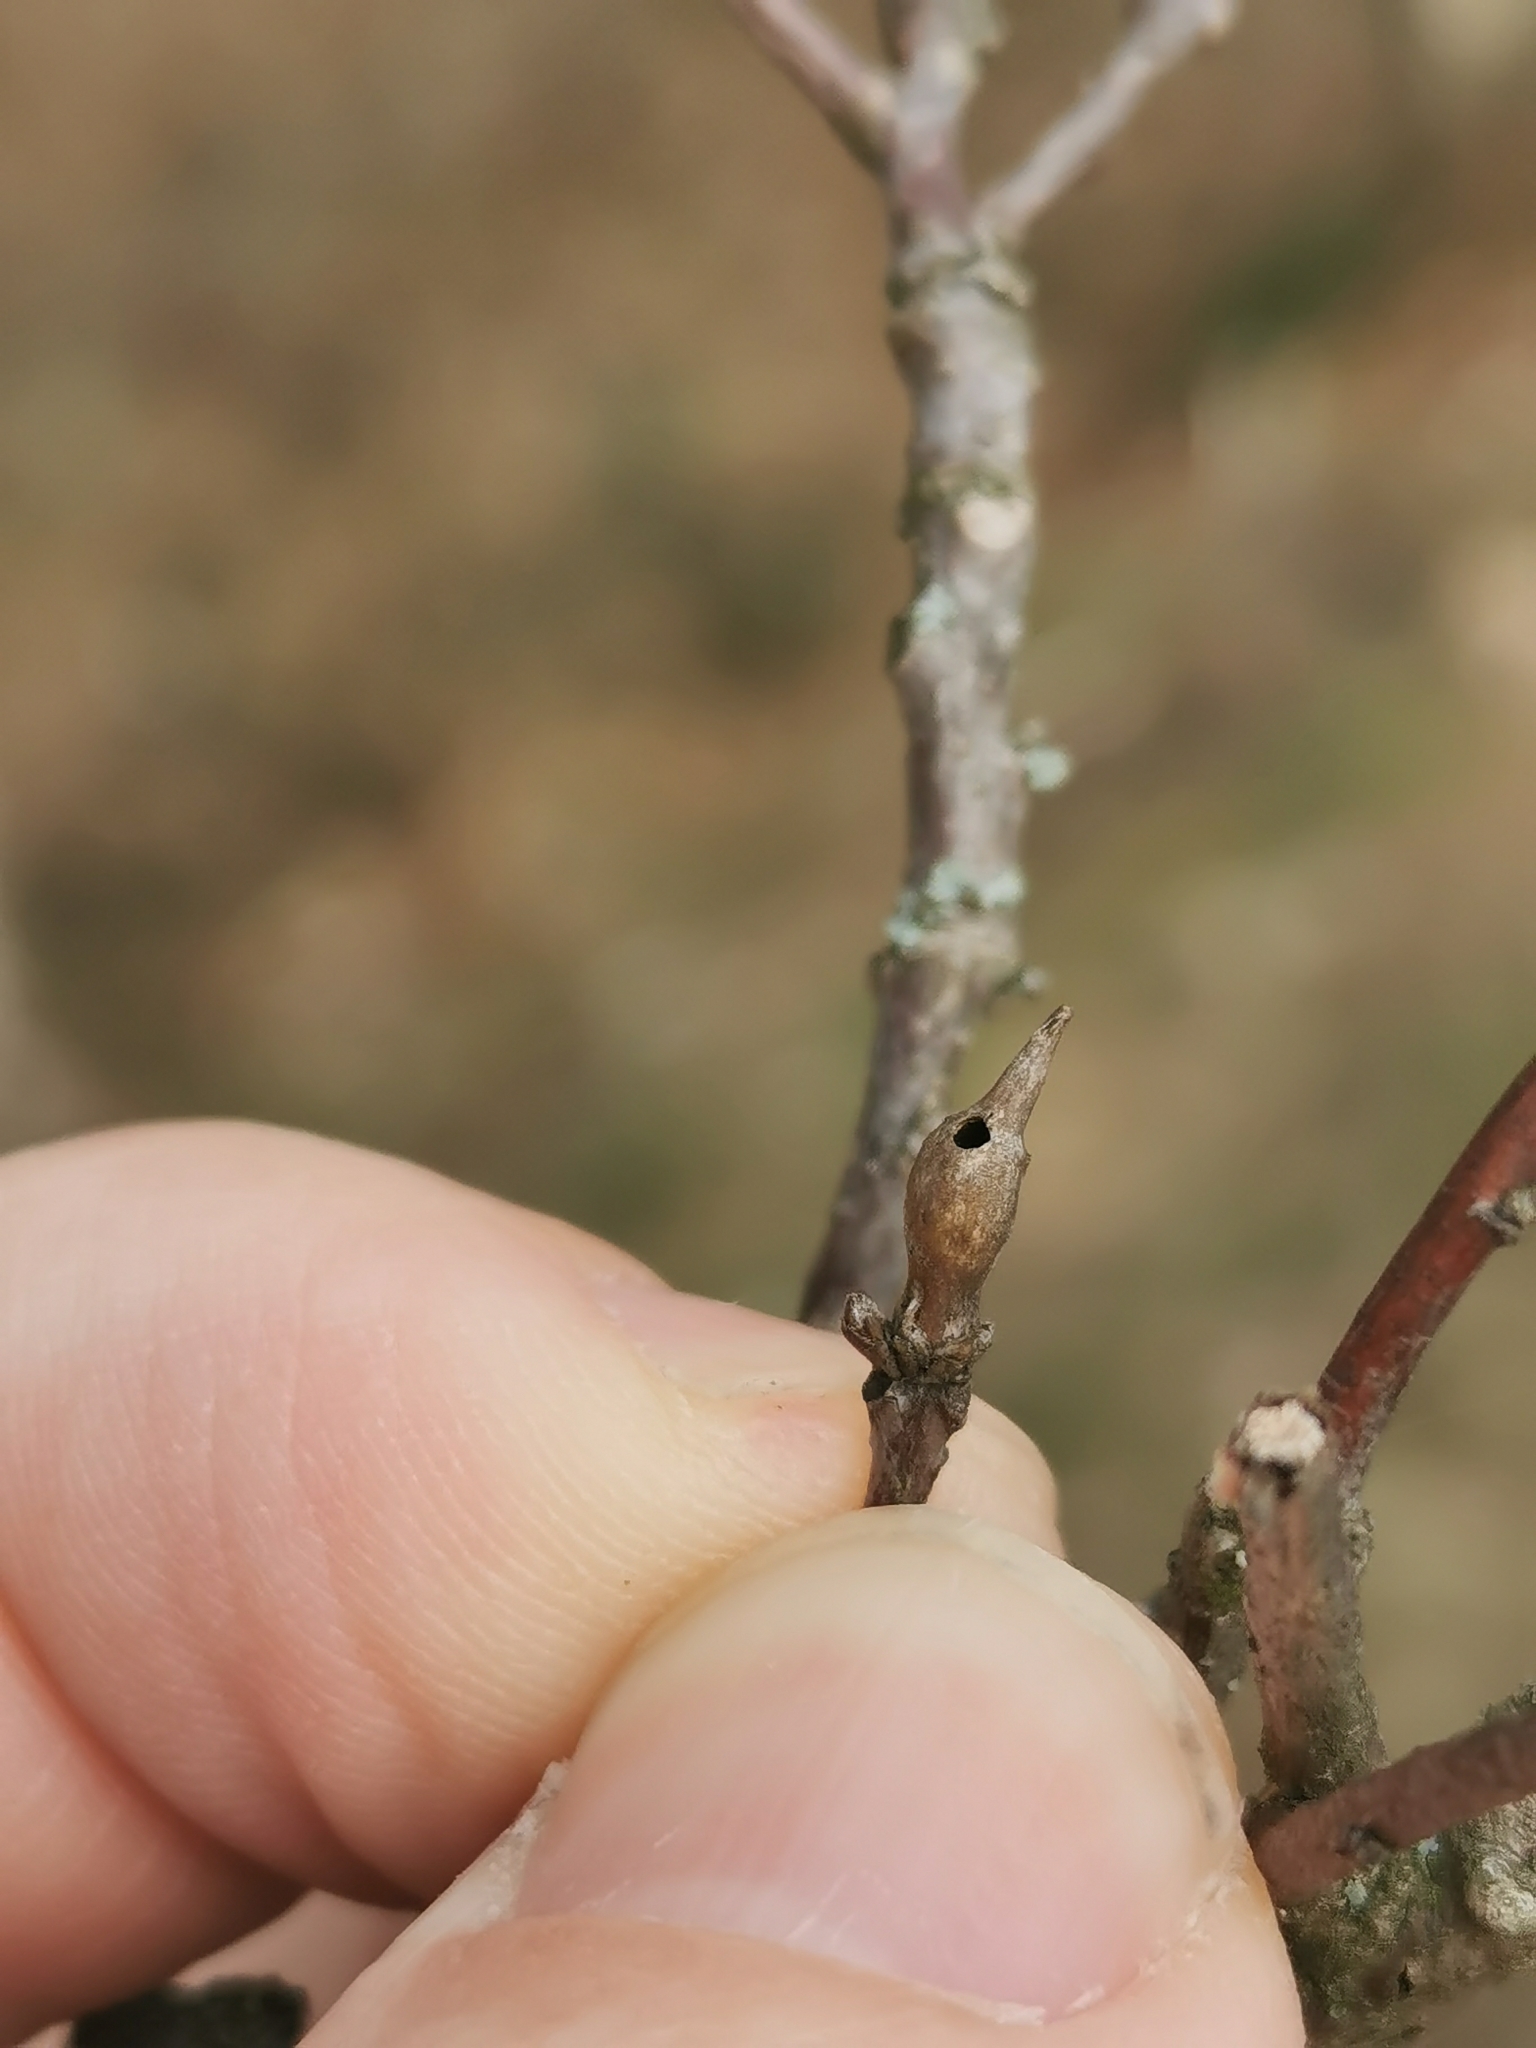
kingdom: Animalia
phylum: Arthropoda
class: Insecta
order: Hymenoptera
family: Cynipidae
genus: Andricus
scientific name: Andricus solitarius
